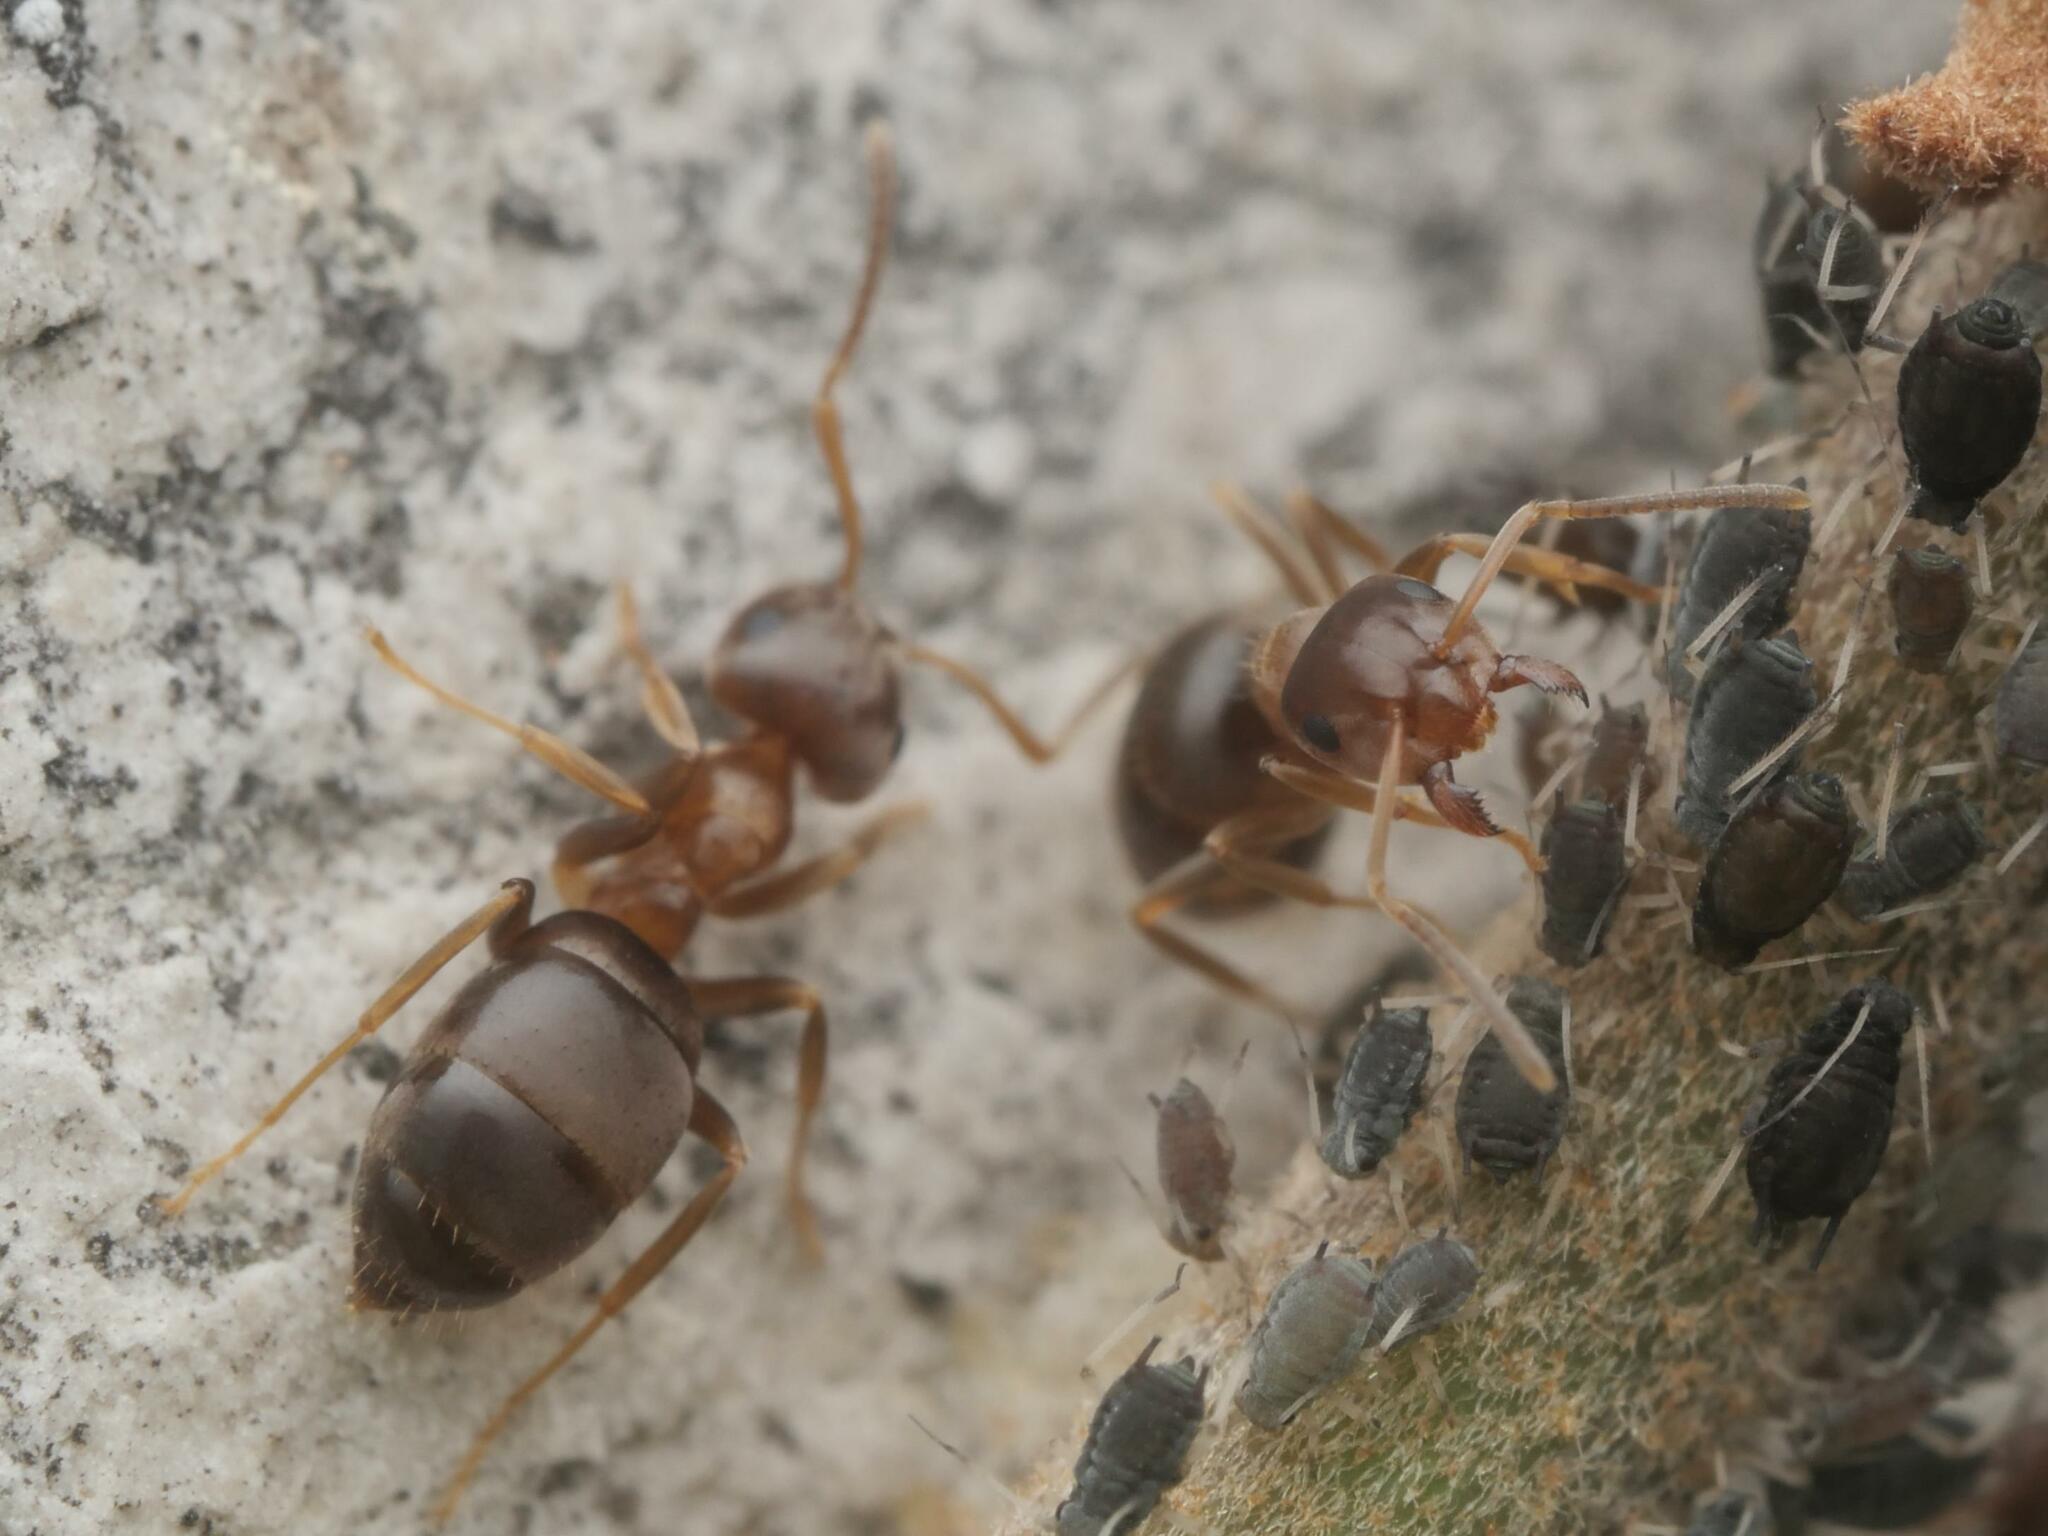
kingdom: Animalia
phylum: Arthropoda
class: Insecta
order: Hymenoptera
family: Formicidae
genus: Lasius
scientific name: Lasius brunneus
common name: Brown ant
